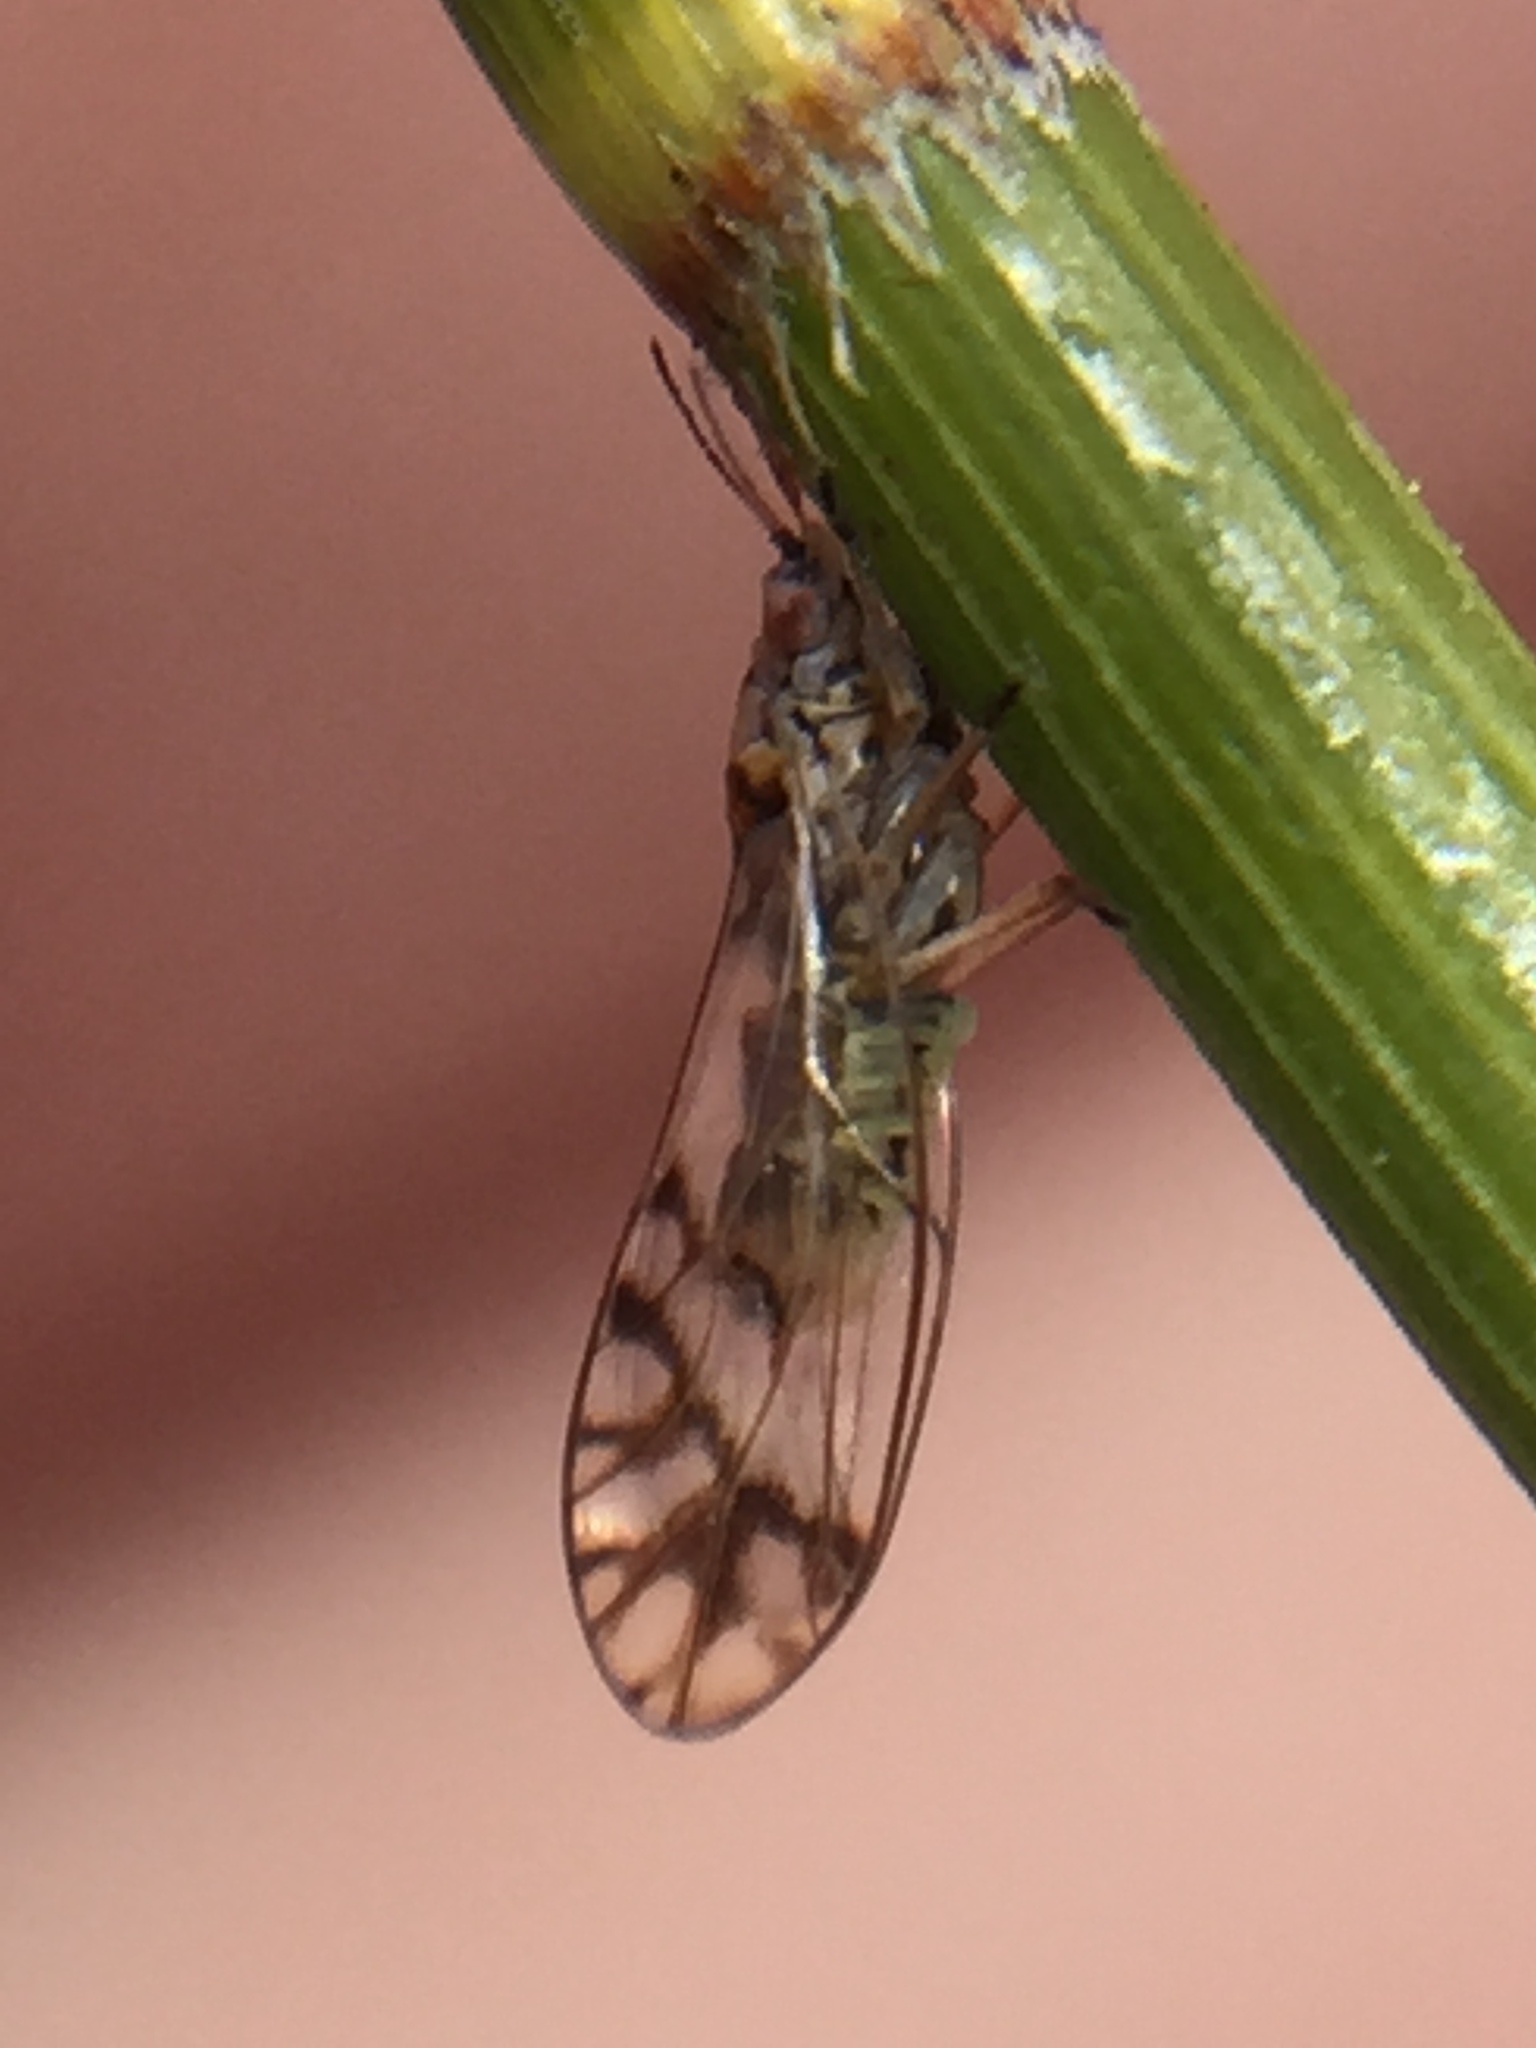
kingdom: Animalia
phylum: Arthropoda
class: Insecta
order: Hemiptera
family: Triozidae
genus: Casuarinicola
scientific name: Casuarinicola australis
